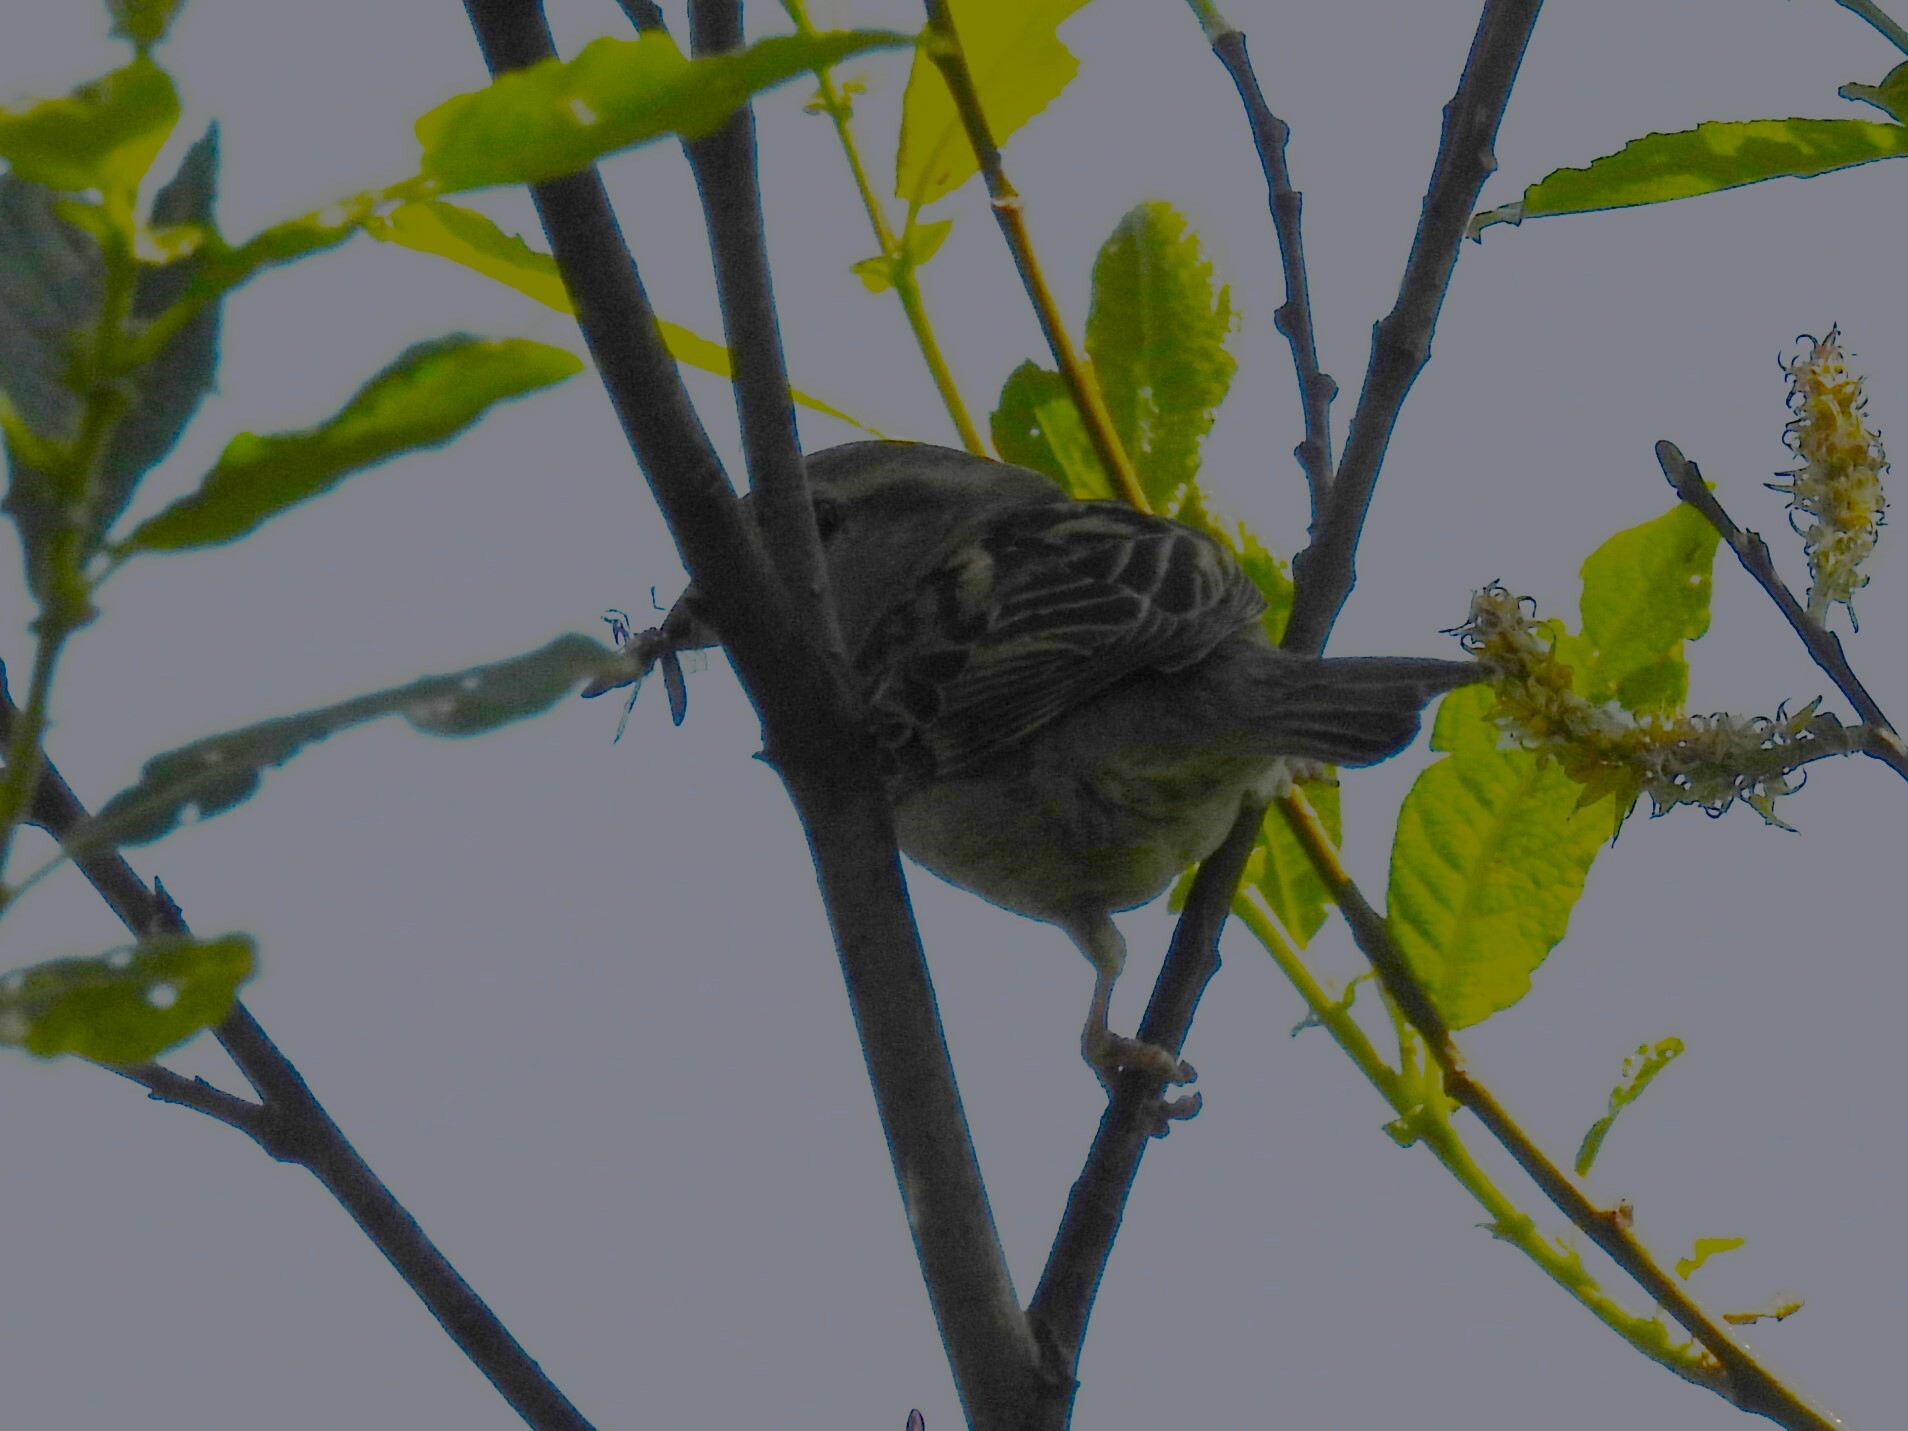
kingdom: Animalia
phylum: Chordata
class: Aves
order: Passeriformes
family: Passeridae
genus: Passer
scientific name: Passer domesticus
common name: House sparrow
